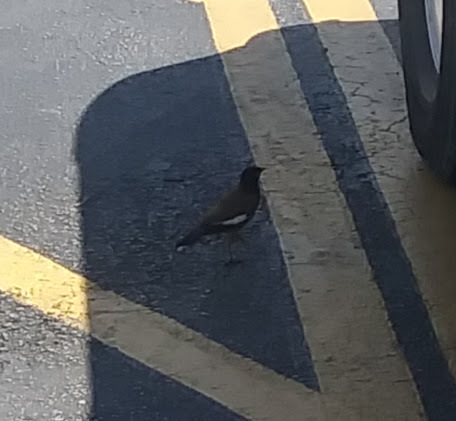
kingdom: Animalia
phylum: Chordata
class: Aves
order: Passeriformes
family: Sturnidae
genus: Acridotheres
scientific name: Acridotheres tristis
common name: Common myna
